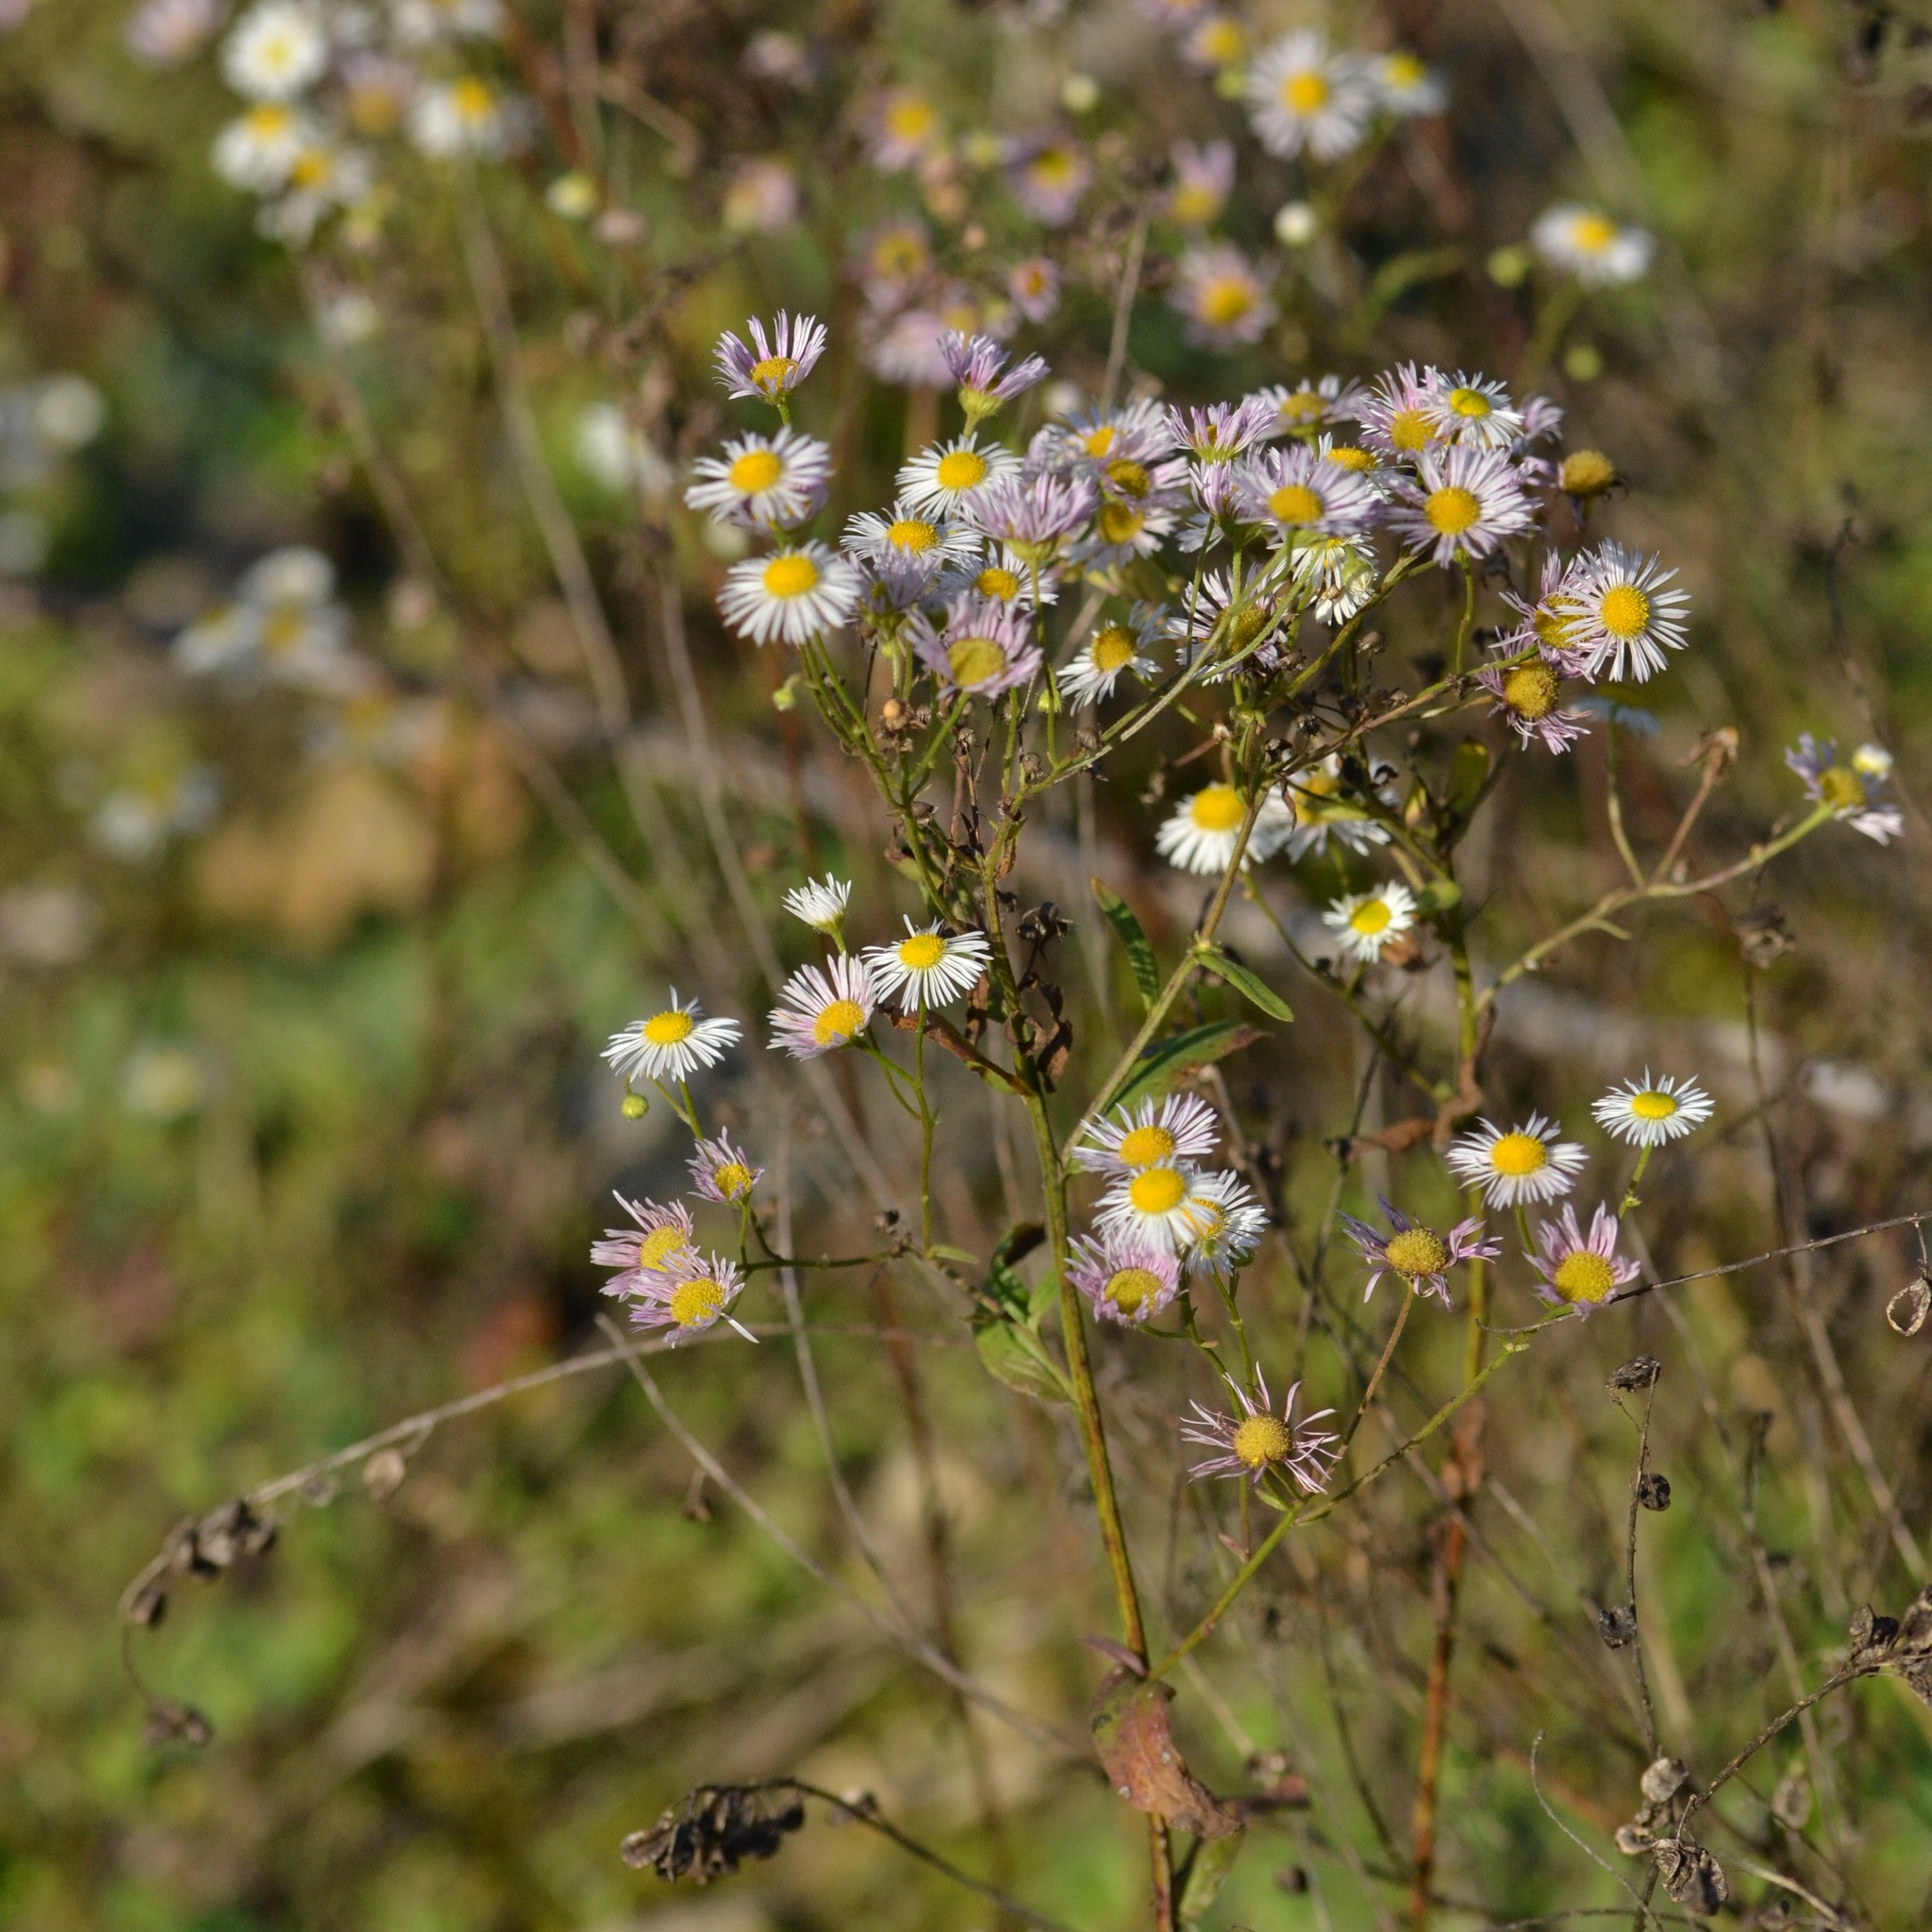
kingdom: Plantae
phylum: Tracheophyta
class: Magnoliopsida
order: Asterales
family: Asteraceae
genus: Erigeron
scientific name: Erigeron annuus
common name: Tall fleabane
